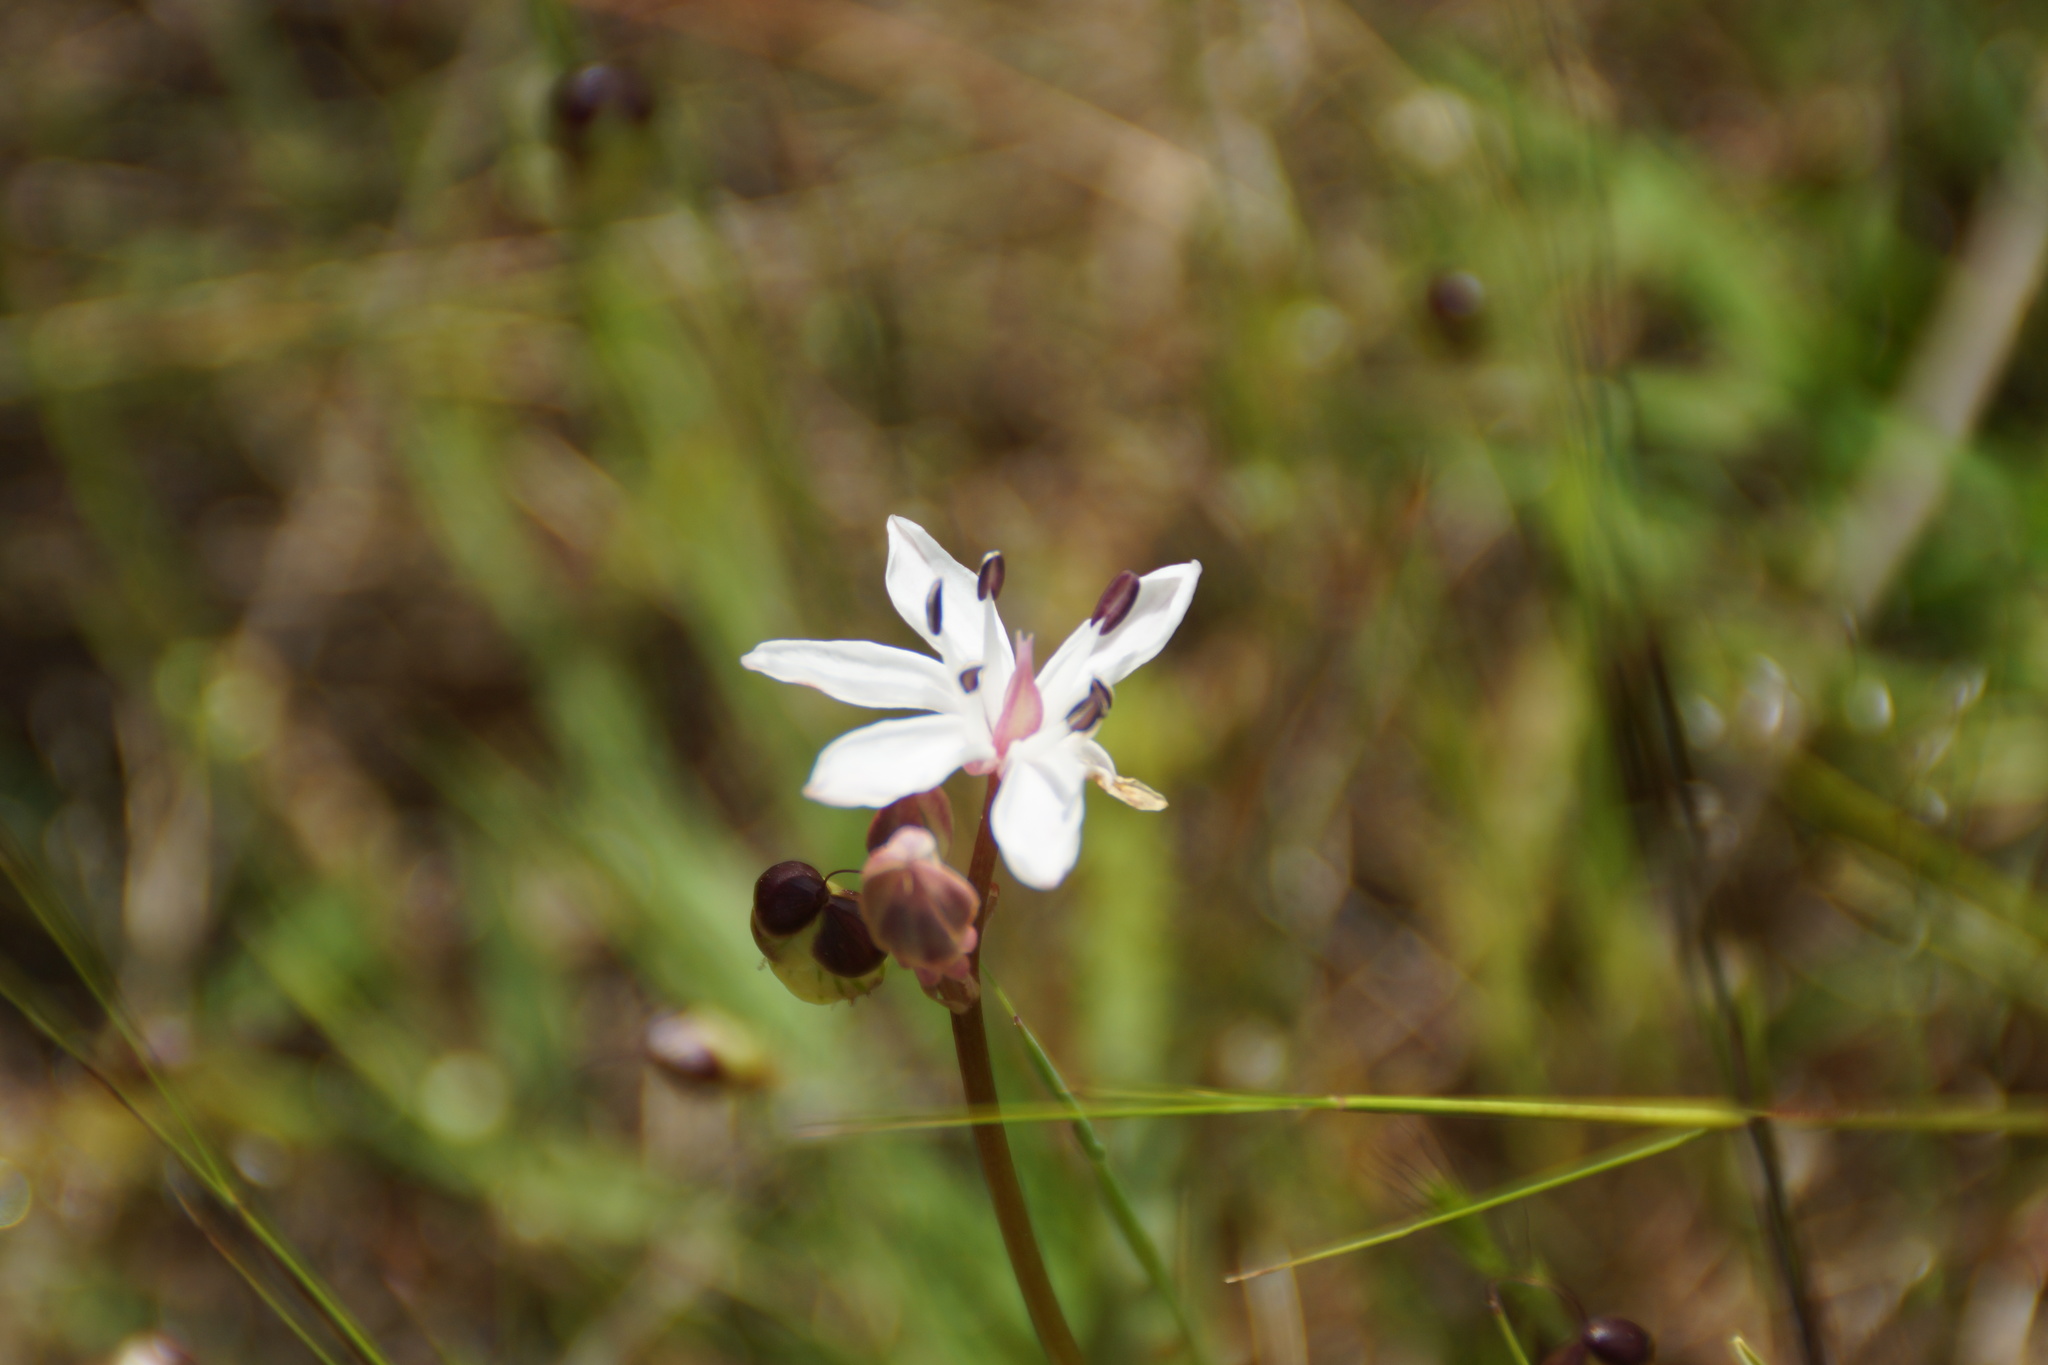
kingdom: Plantae
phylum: Tracheophyta
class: Liliopsida
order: Liliales
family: Colchicaceae
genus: Burchardia
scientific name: Burchardia umbellata
